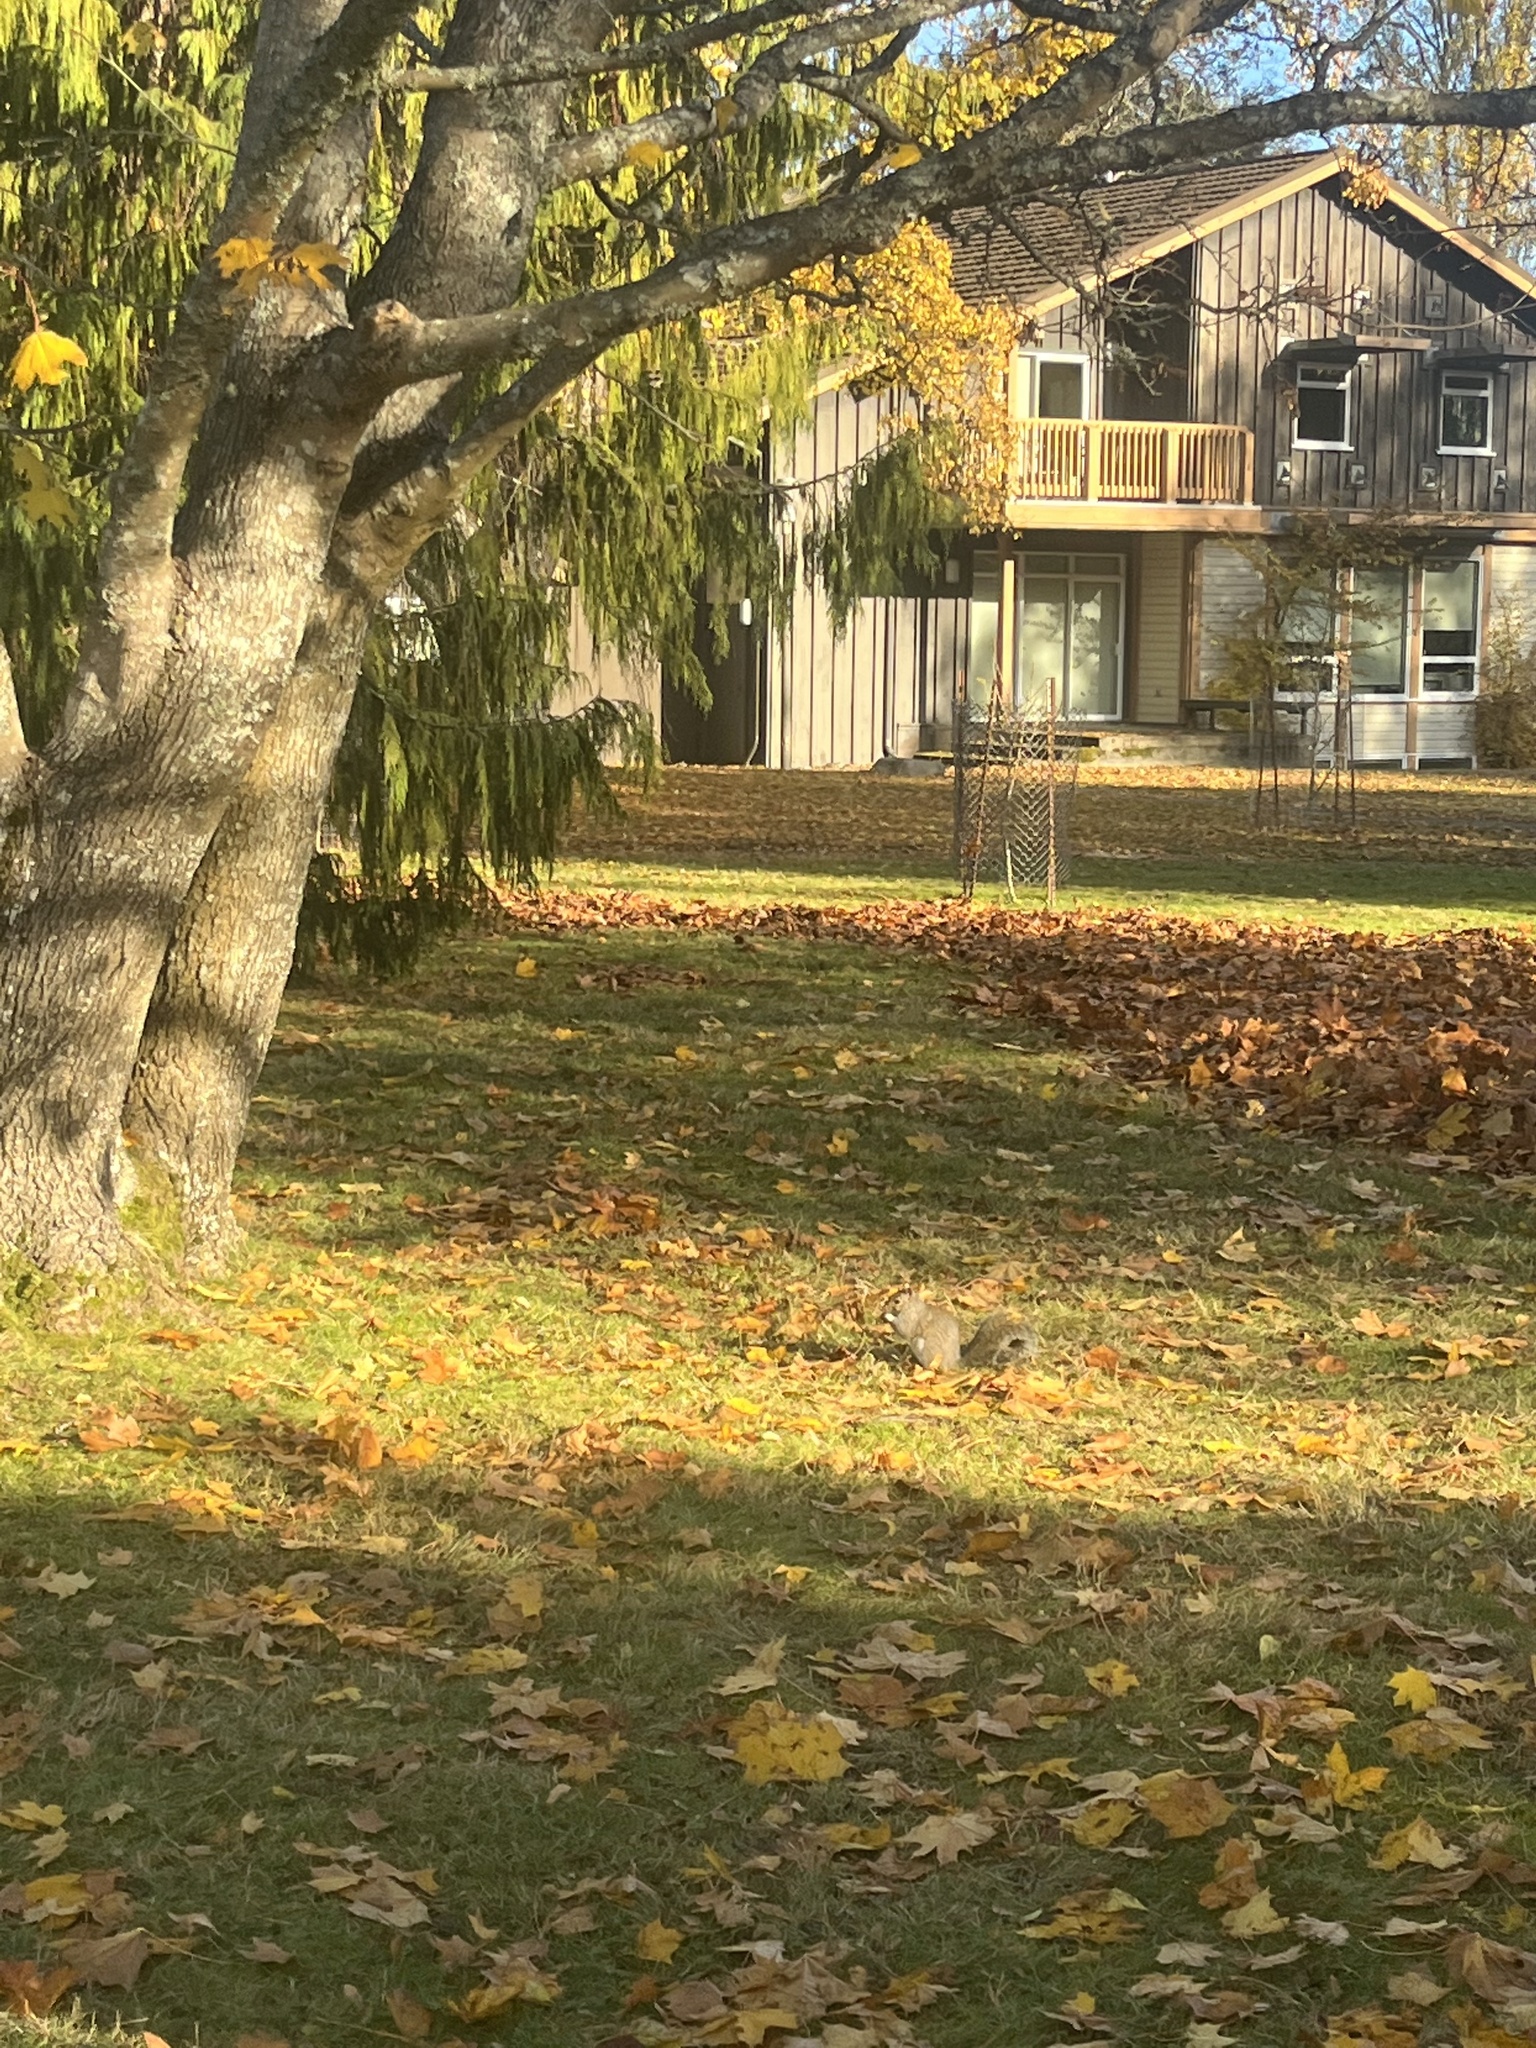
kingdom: Animalia
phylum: Chordata
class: Mammalia
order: Rodentia
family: Sciuridae
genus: Sciurus
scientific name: Sciurus carolinensis
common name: Eastern gray squirrel
